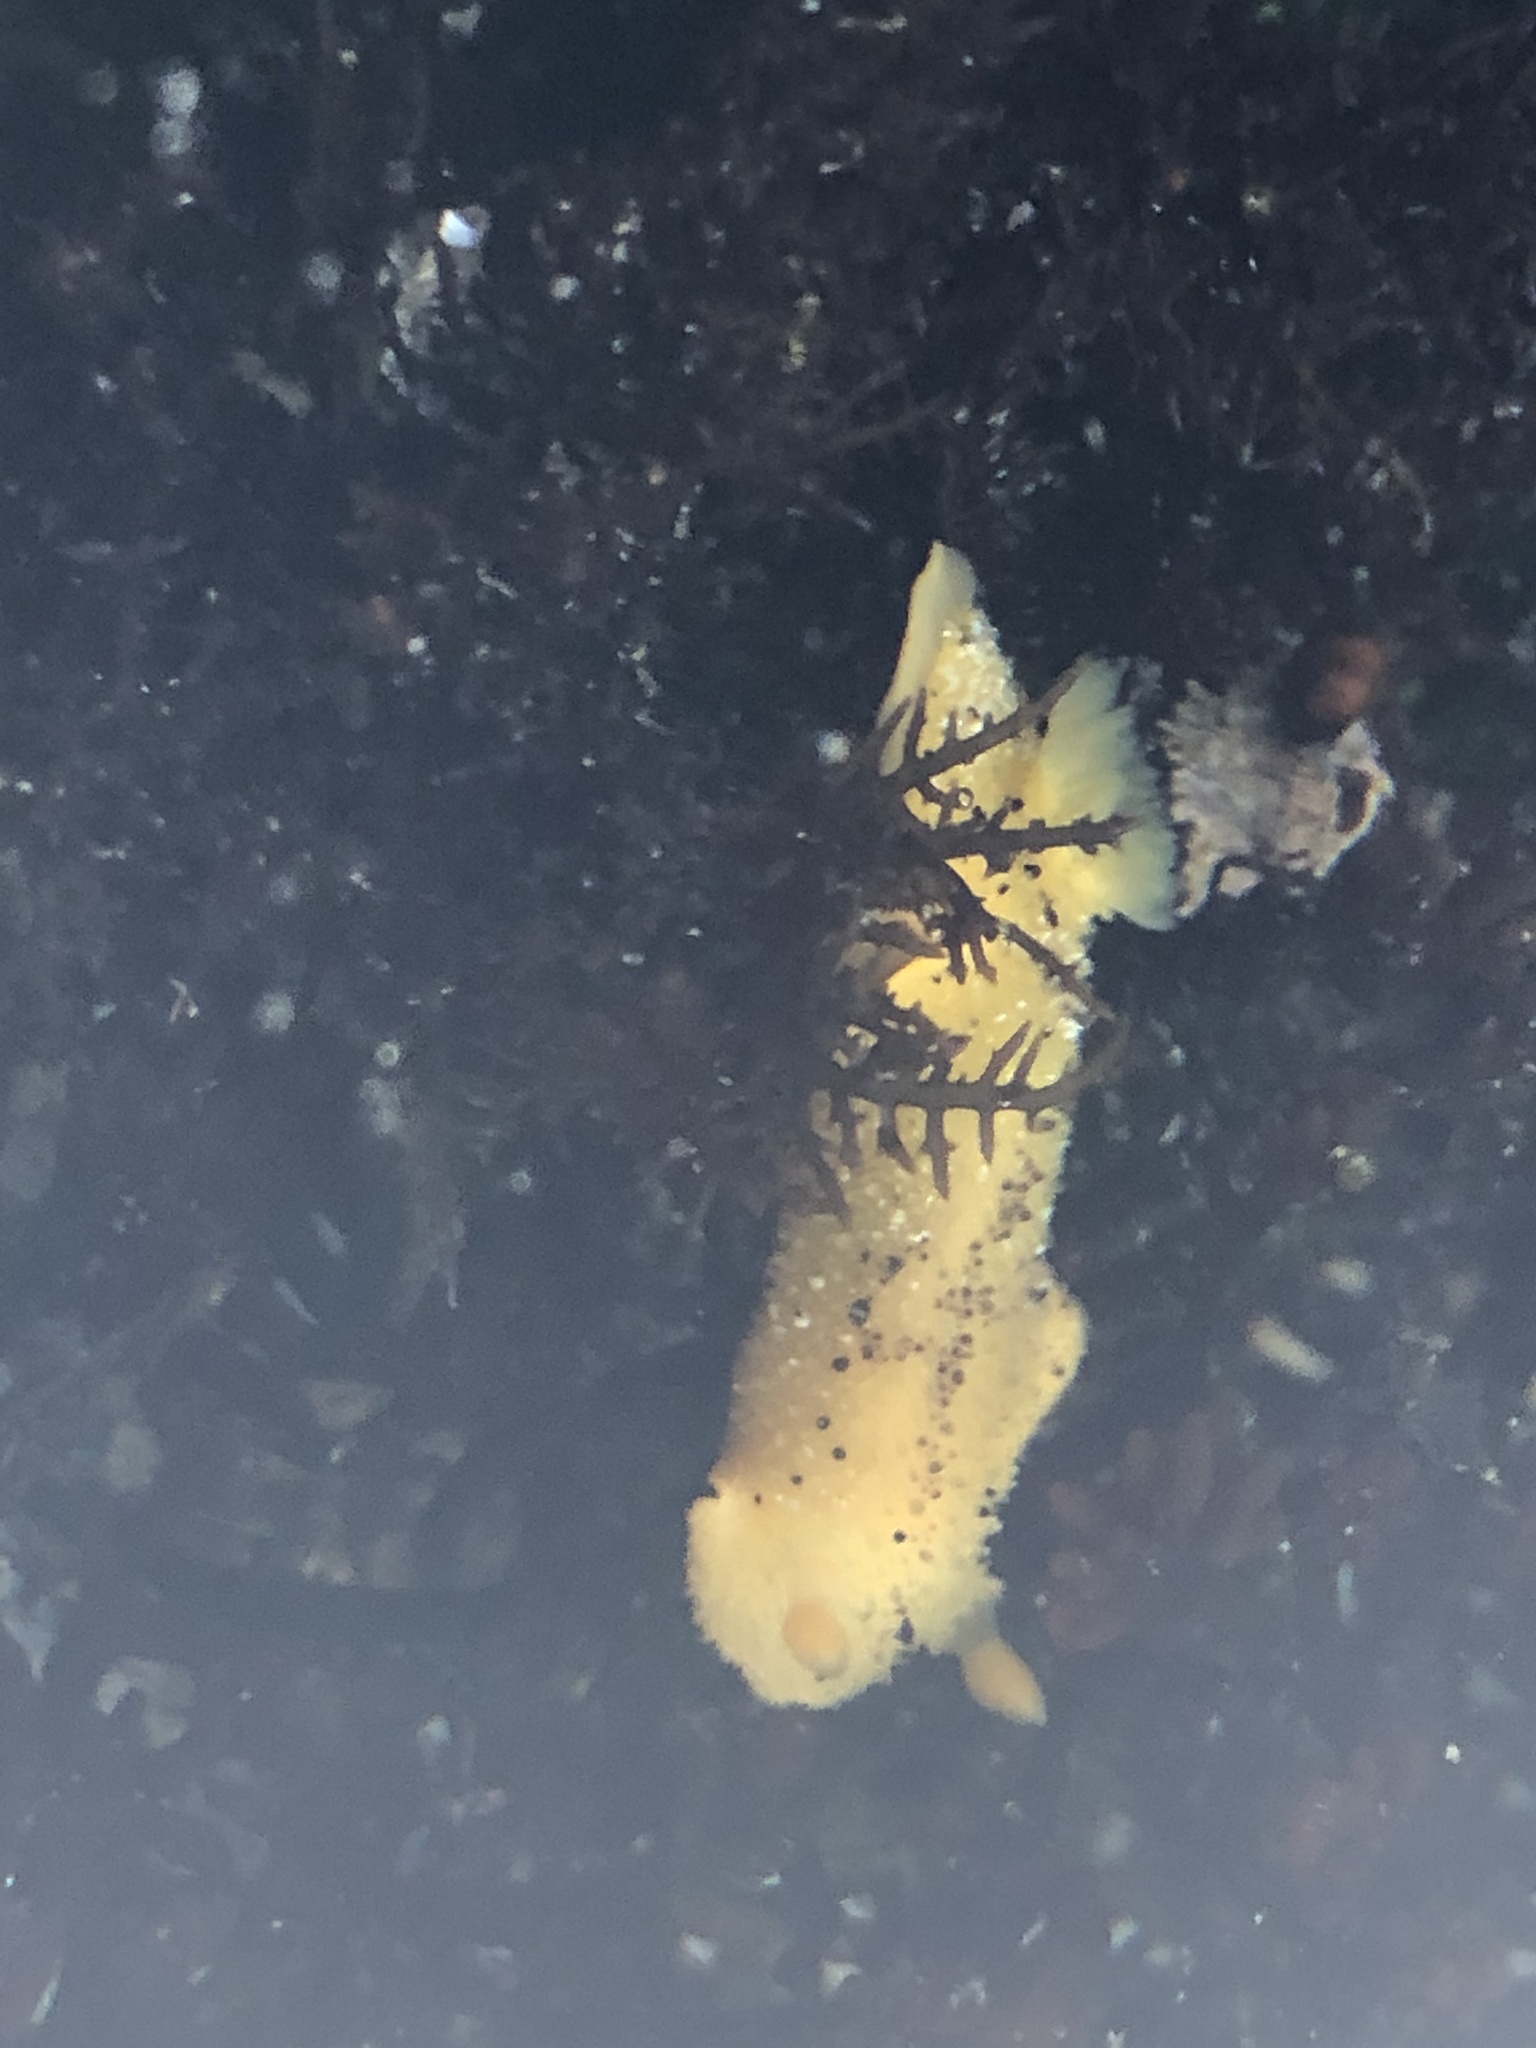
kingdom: Animalia
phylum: Mollusca
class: Gastropoda
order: Nudibranchia
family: Dorididae
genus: Doris
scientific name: Doris montereyensis
